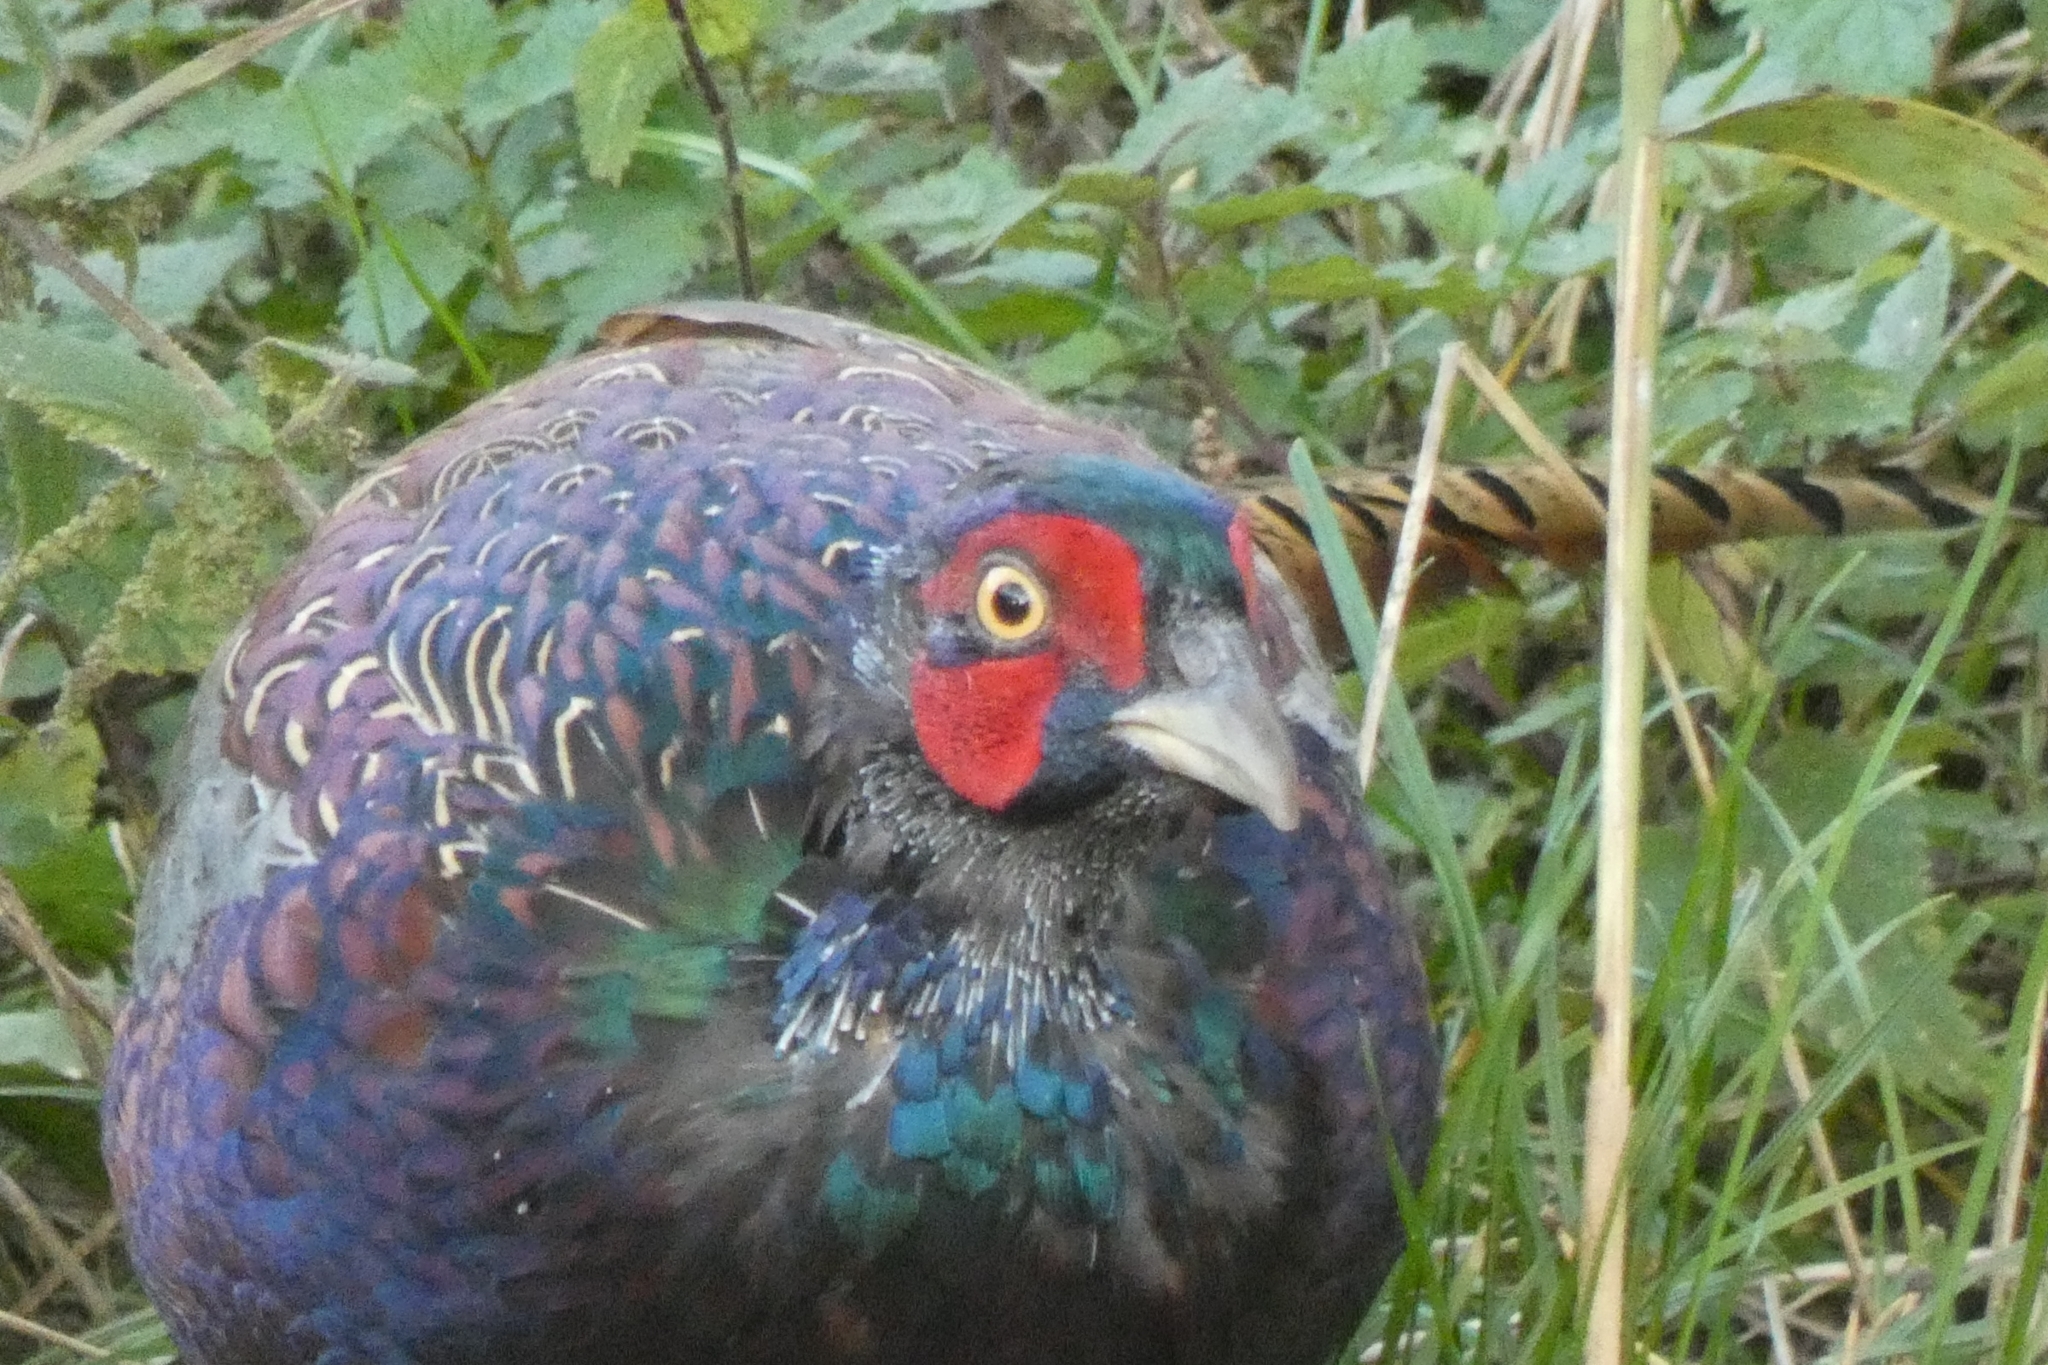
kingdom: Animalia
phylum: Chordata
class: Aves
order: Galliformes
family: Phasianidae
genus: Phasianus
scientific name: Phasianus colchicus
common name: Common pheasant
